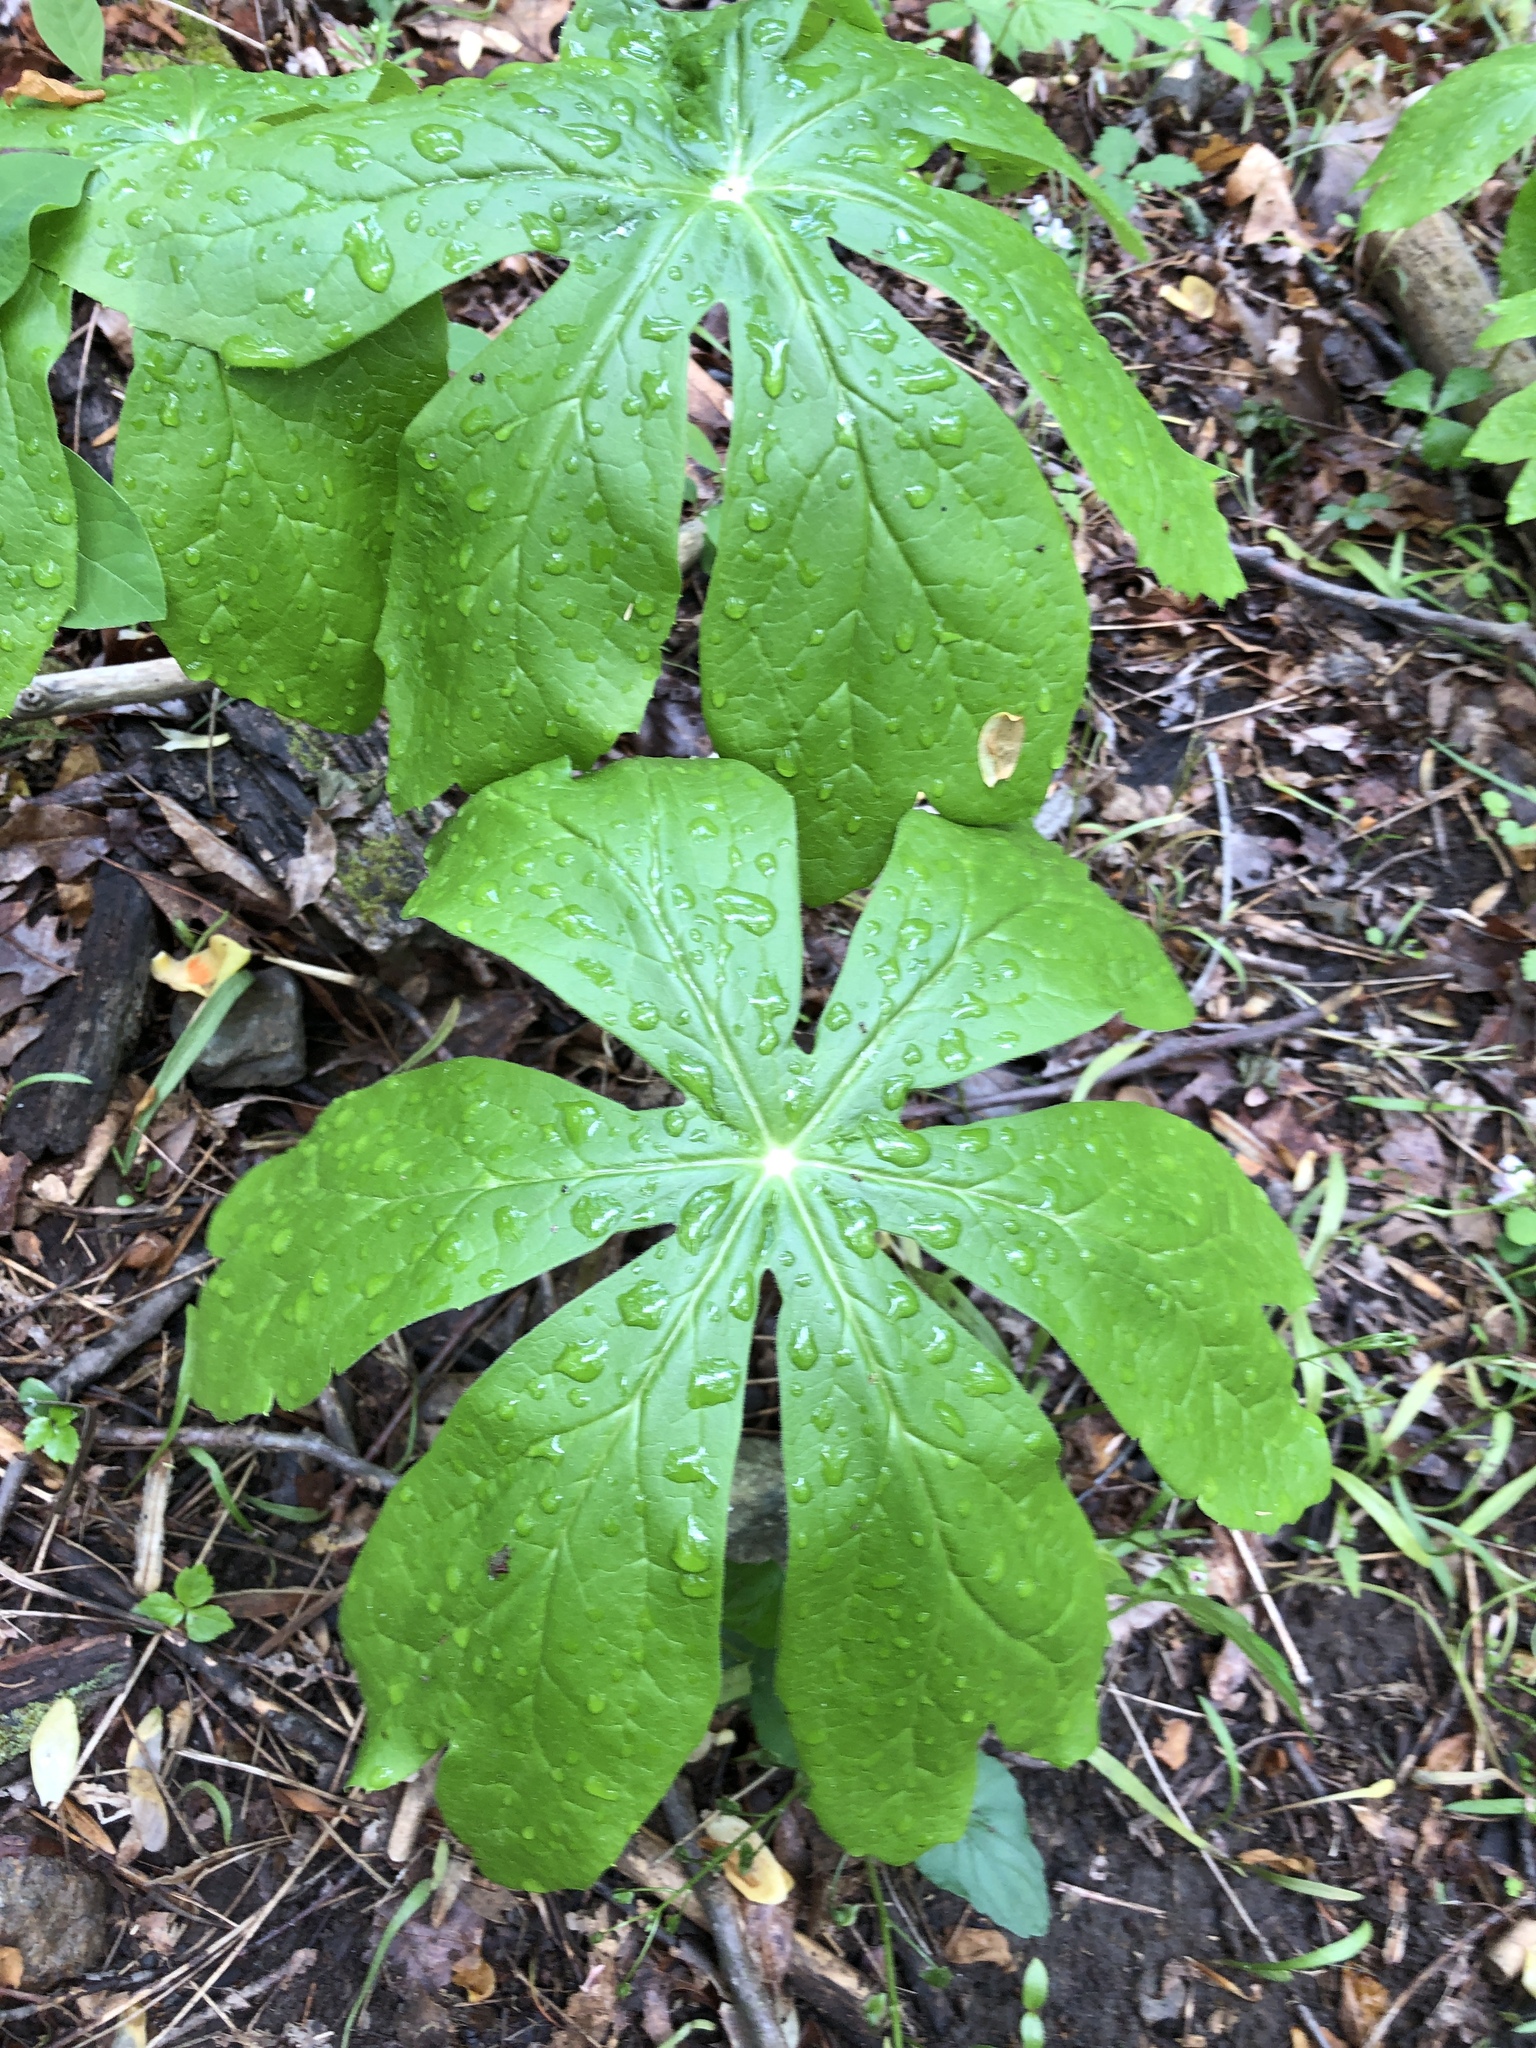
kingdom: Plantae
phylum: Tracheophyta
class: Magnoliopsida
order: Ranunculales
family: Berberidaceae
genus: Podophyllum
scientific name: Podophyllum peltatum
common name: Wild mandrake
